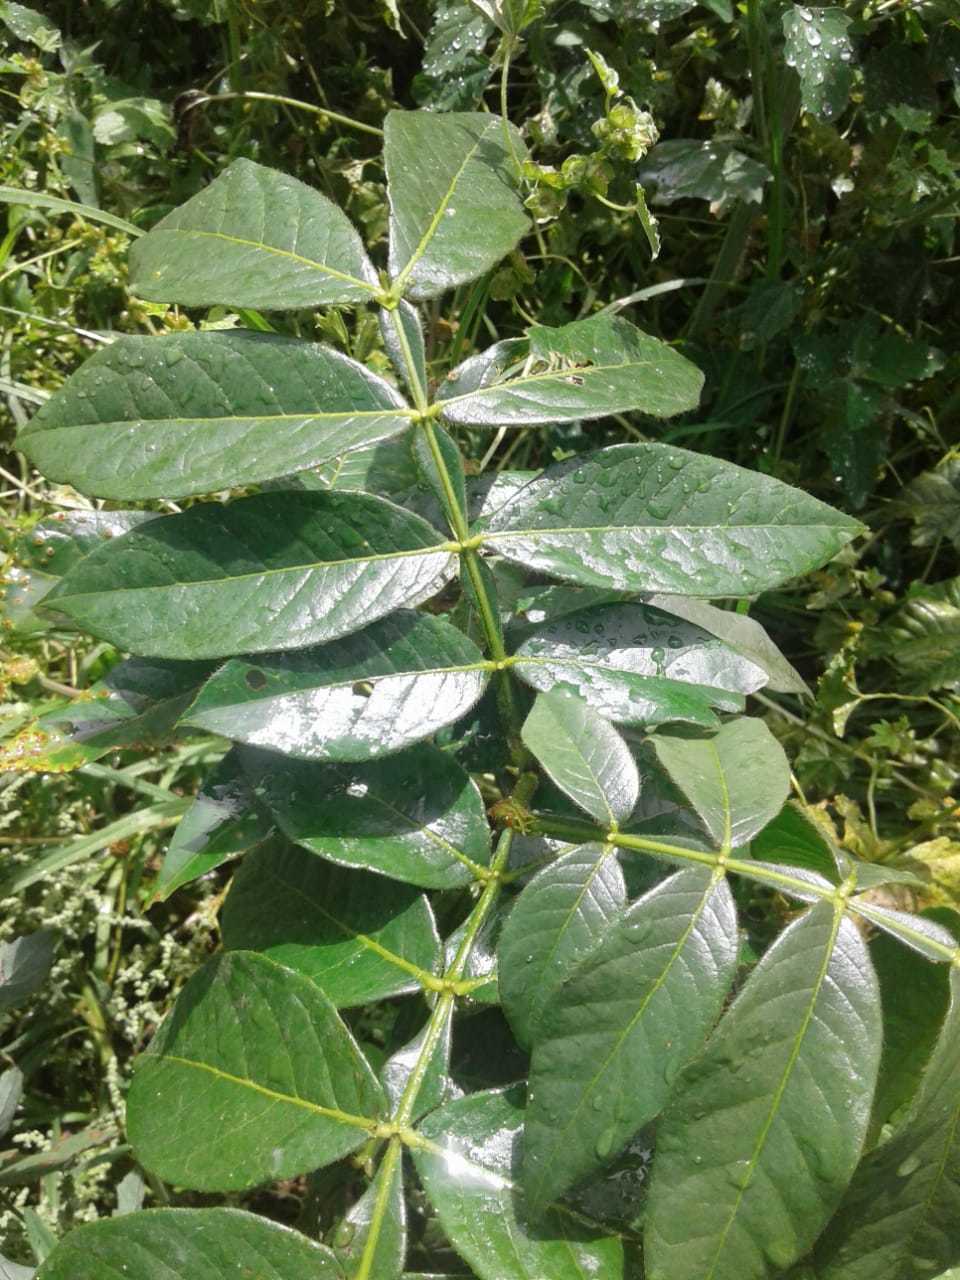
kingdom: Plantae
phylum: Tracheophyta
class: Magnoliopsida
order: Fabales
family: Fabaceae
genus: Inga
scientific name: Inga insignis
